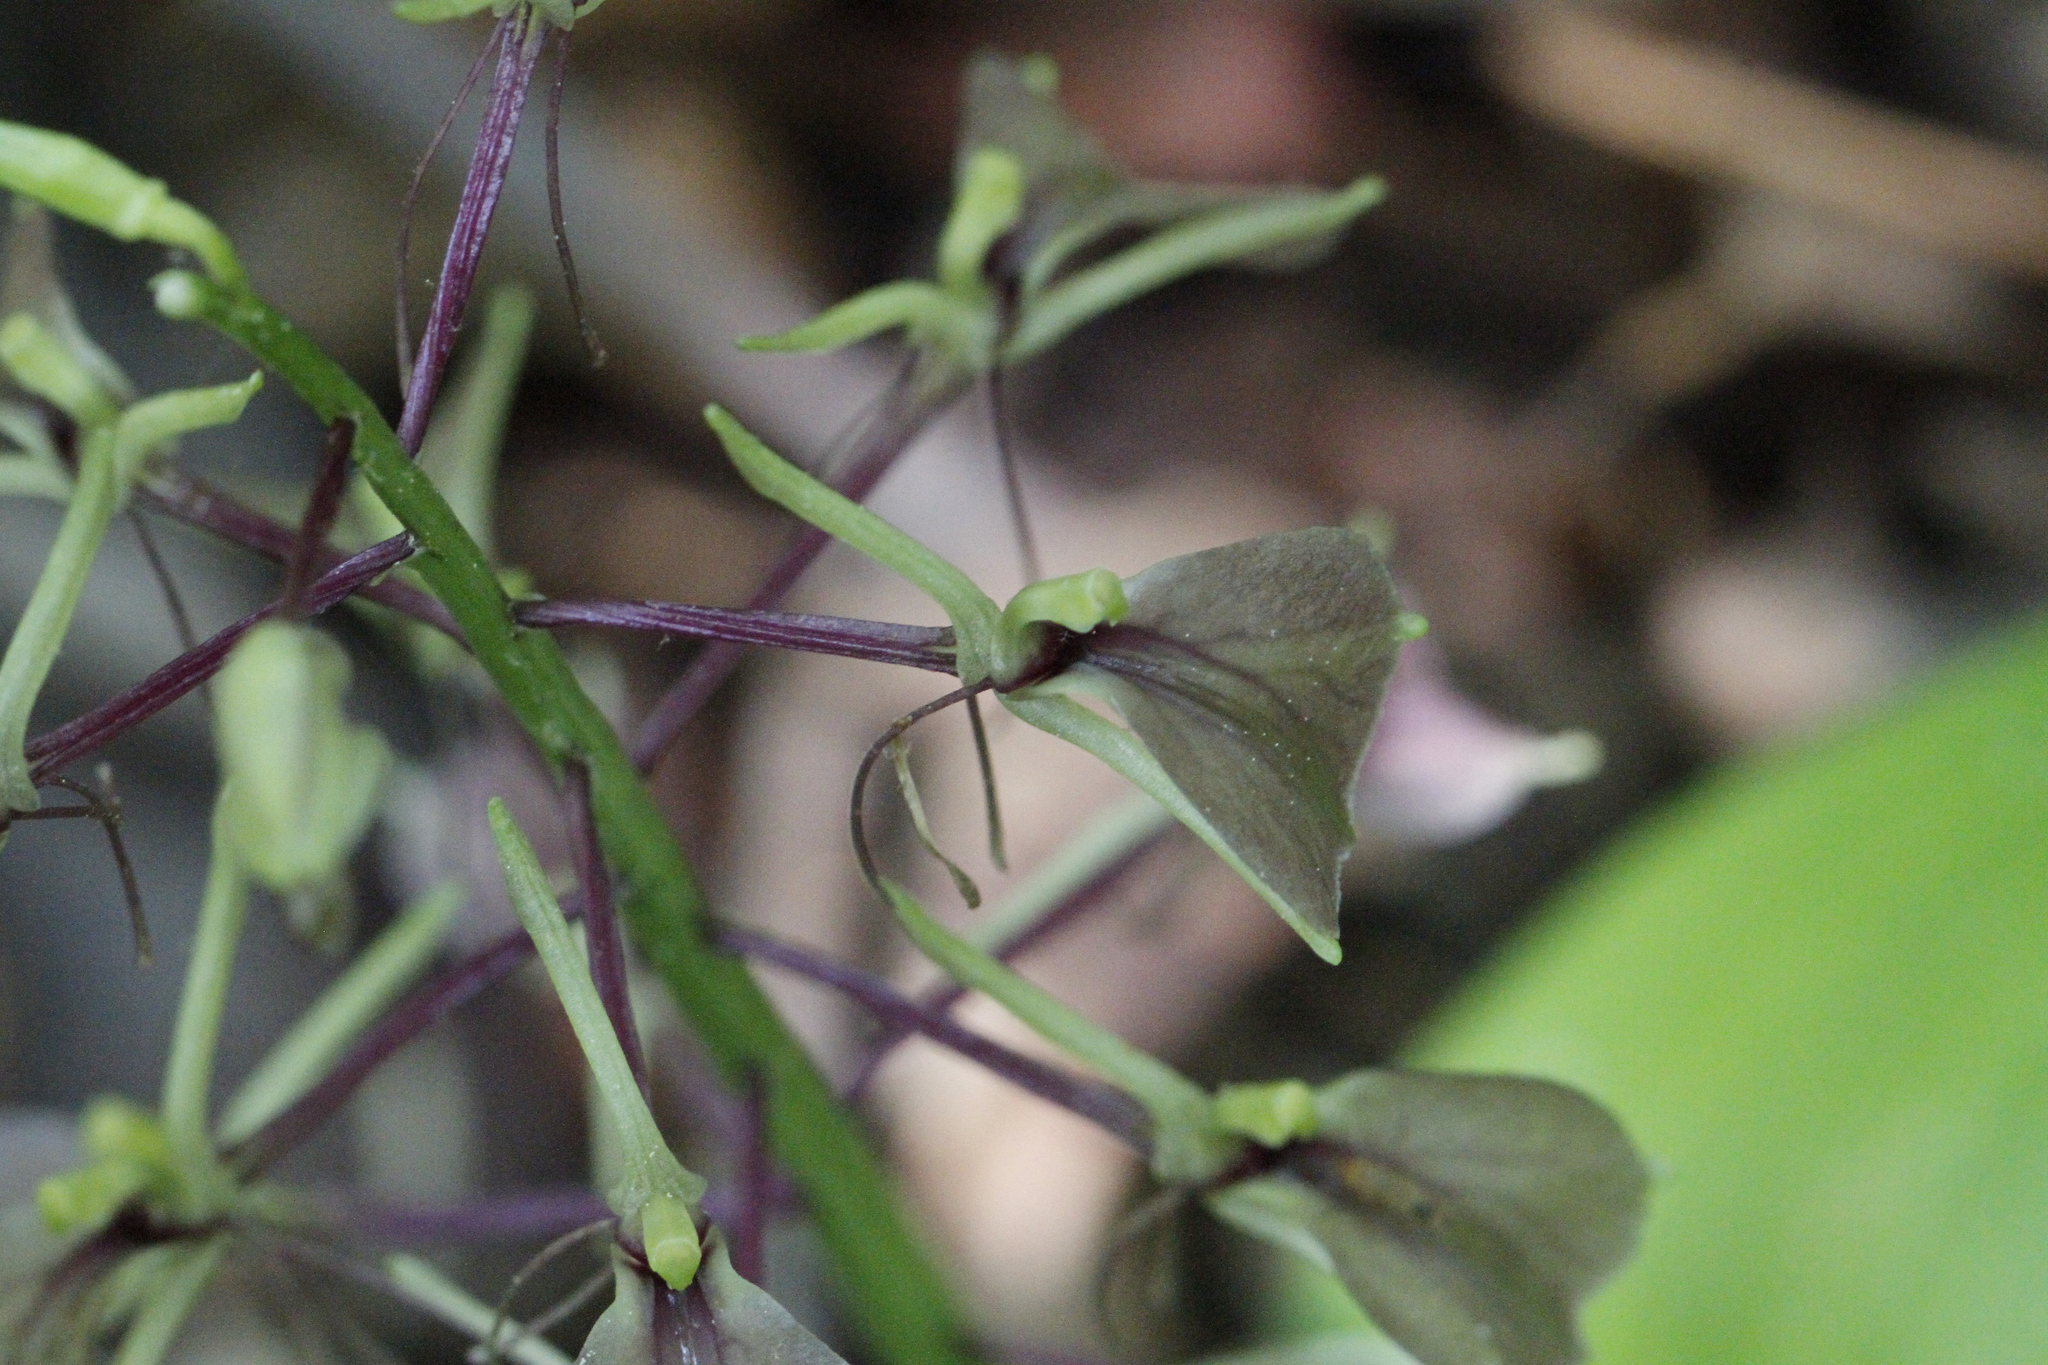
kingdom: Plantae
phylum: Tracheophyta
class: Liliopsida
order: Asparagales
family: Orchidaceae
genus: Liparis
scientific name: Liparis liliifolia
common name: Brown wide-lip orchid
